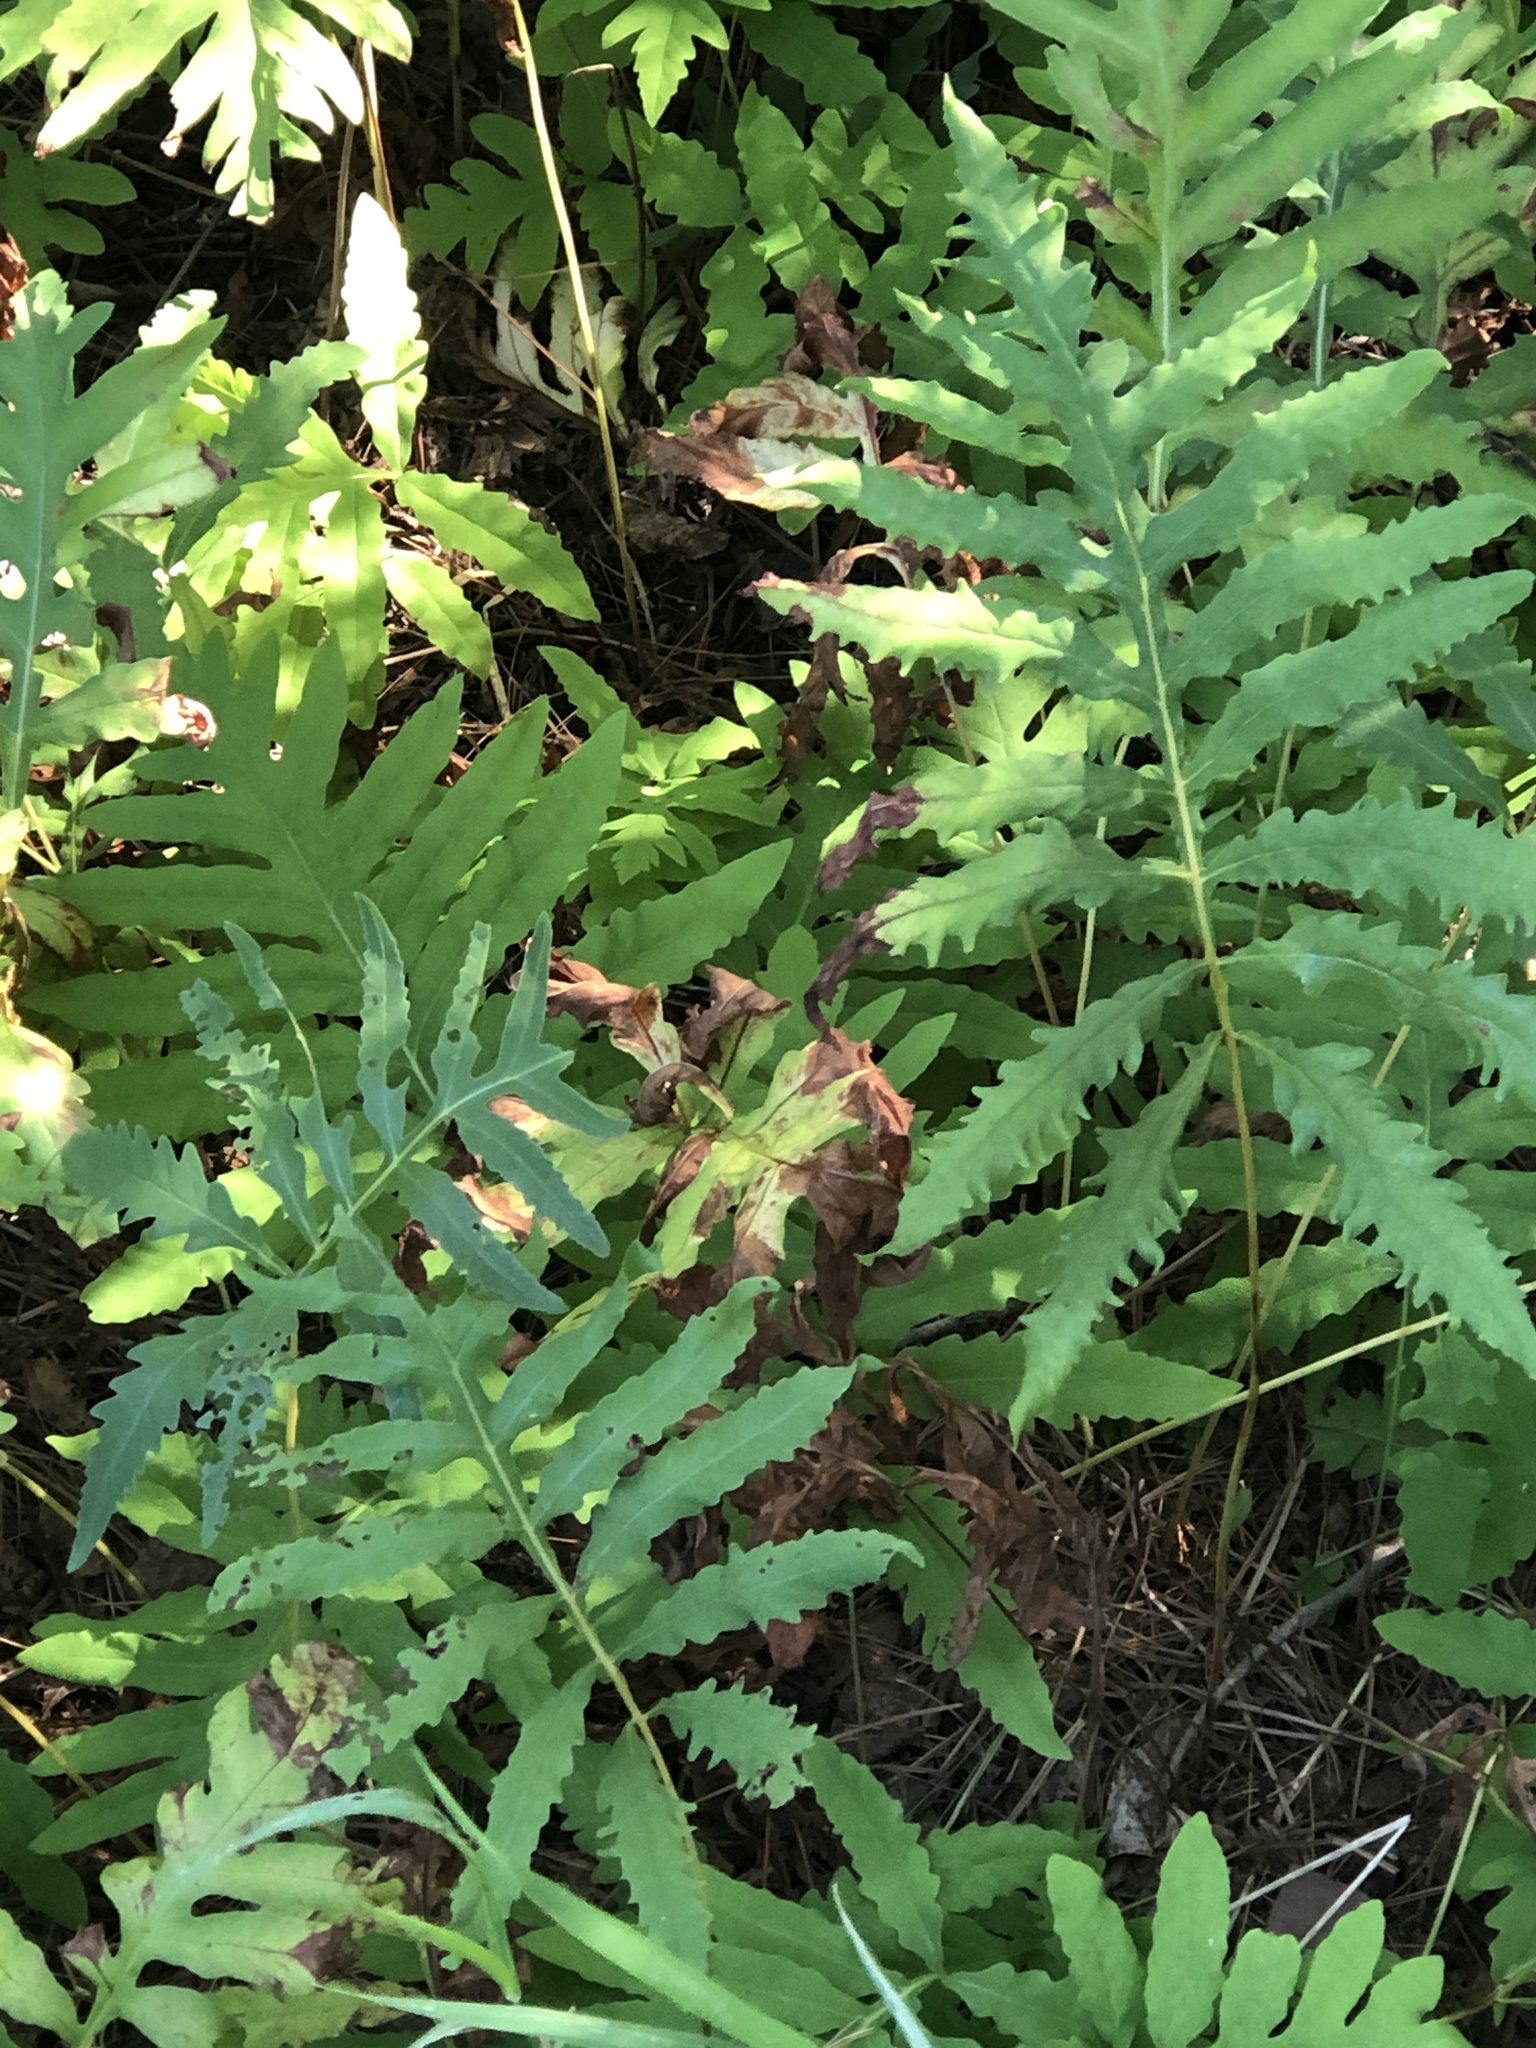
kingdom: Plantae
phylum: Tracheophyta
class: Polypodiopsida
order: Polypodiales
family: Onocleaceae
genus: Onoclea
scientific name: Onoclea sensibilis
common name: Sensitive fern
